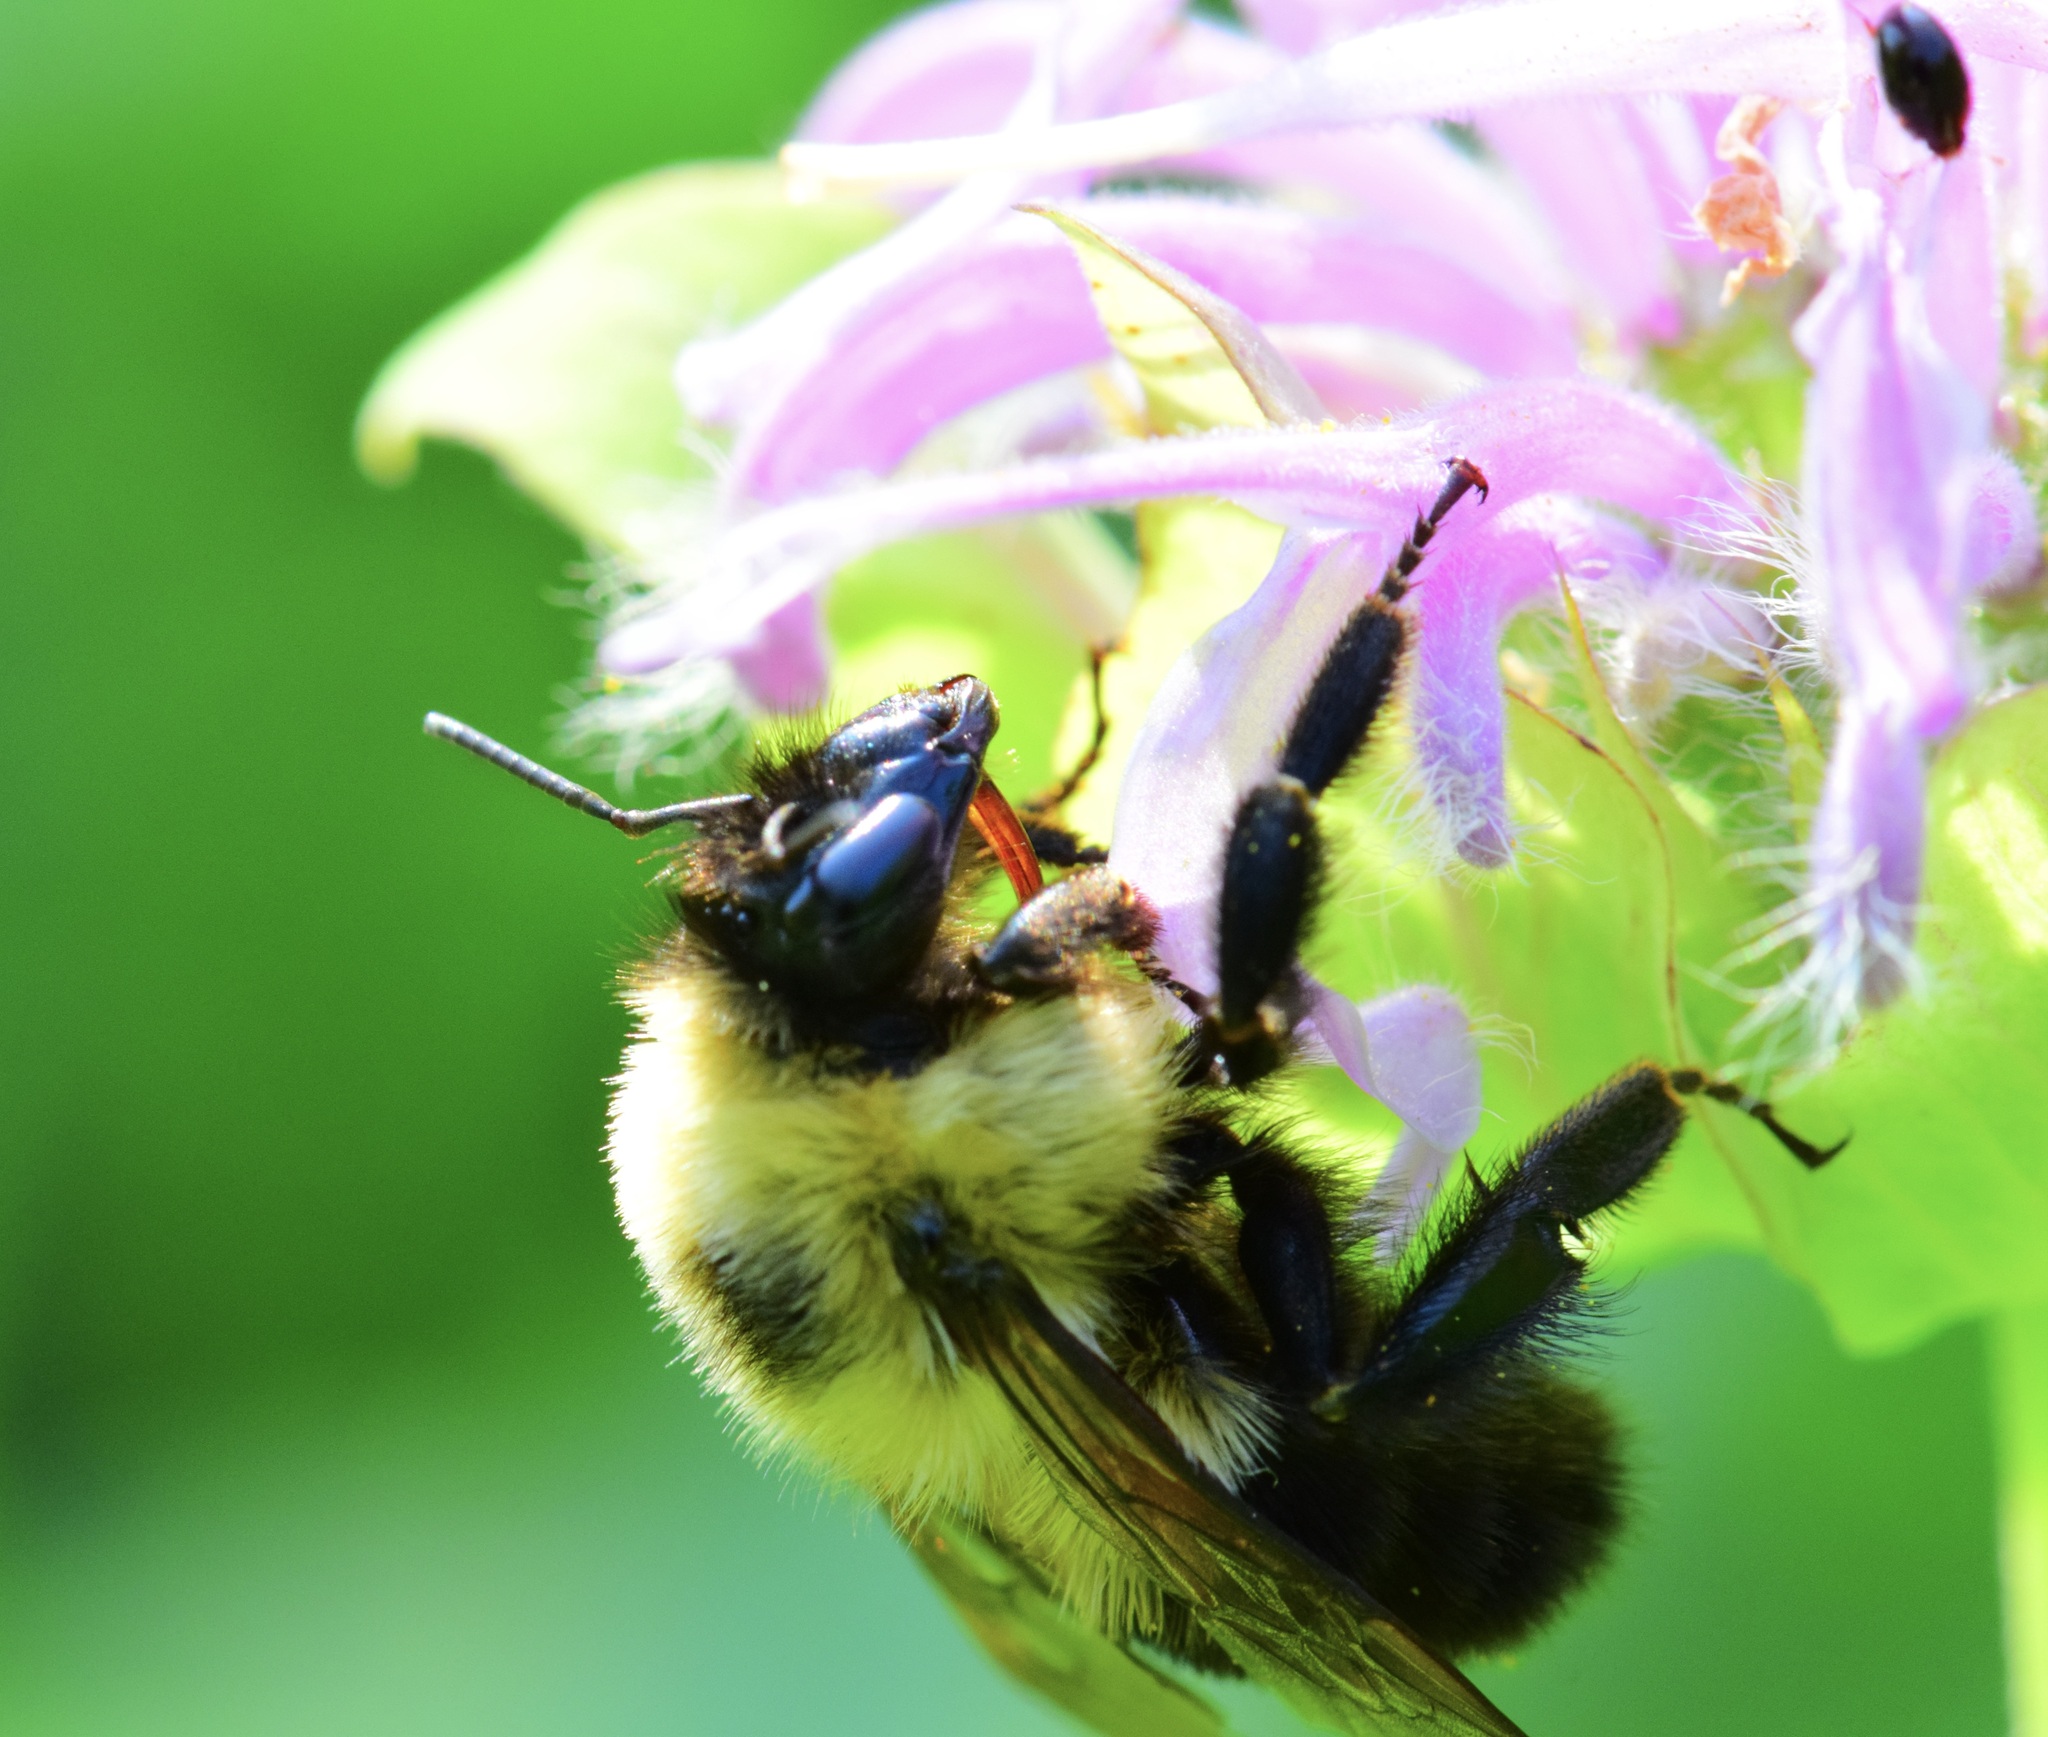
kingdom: Animalia
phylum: Arthropoda
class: Insecta
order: Hymenoptera
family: Apidae
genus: Bombus
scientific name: Bombus bimaculatus
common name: Two-spotted bumble bee
